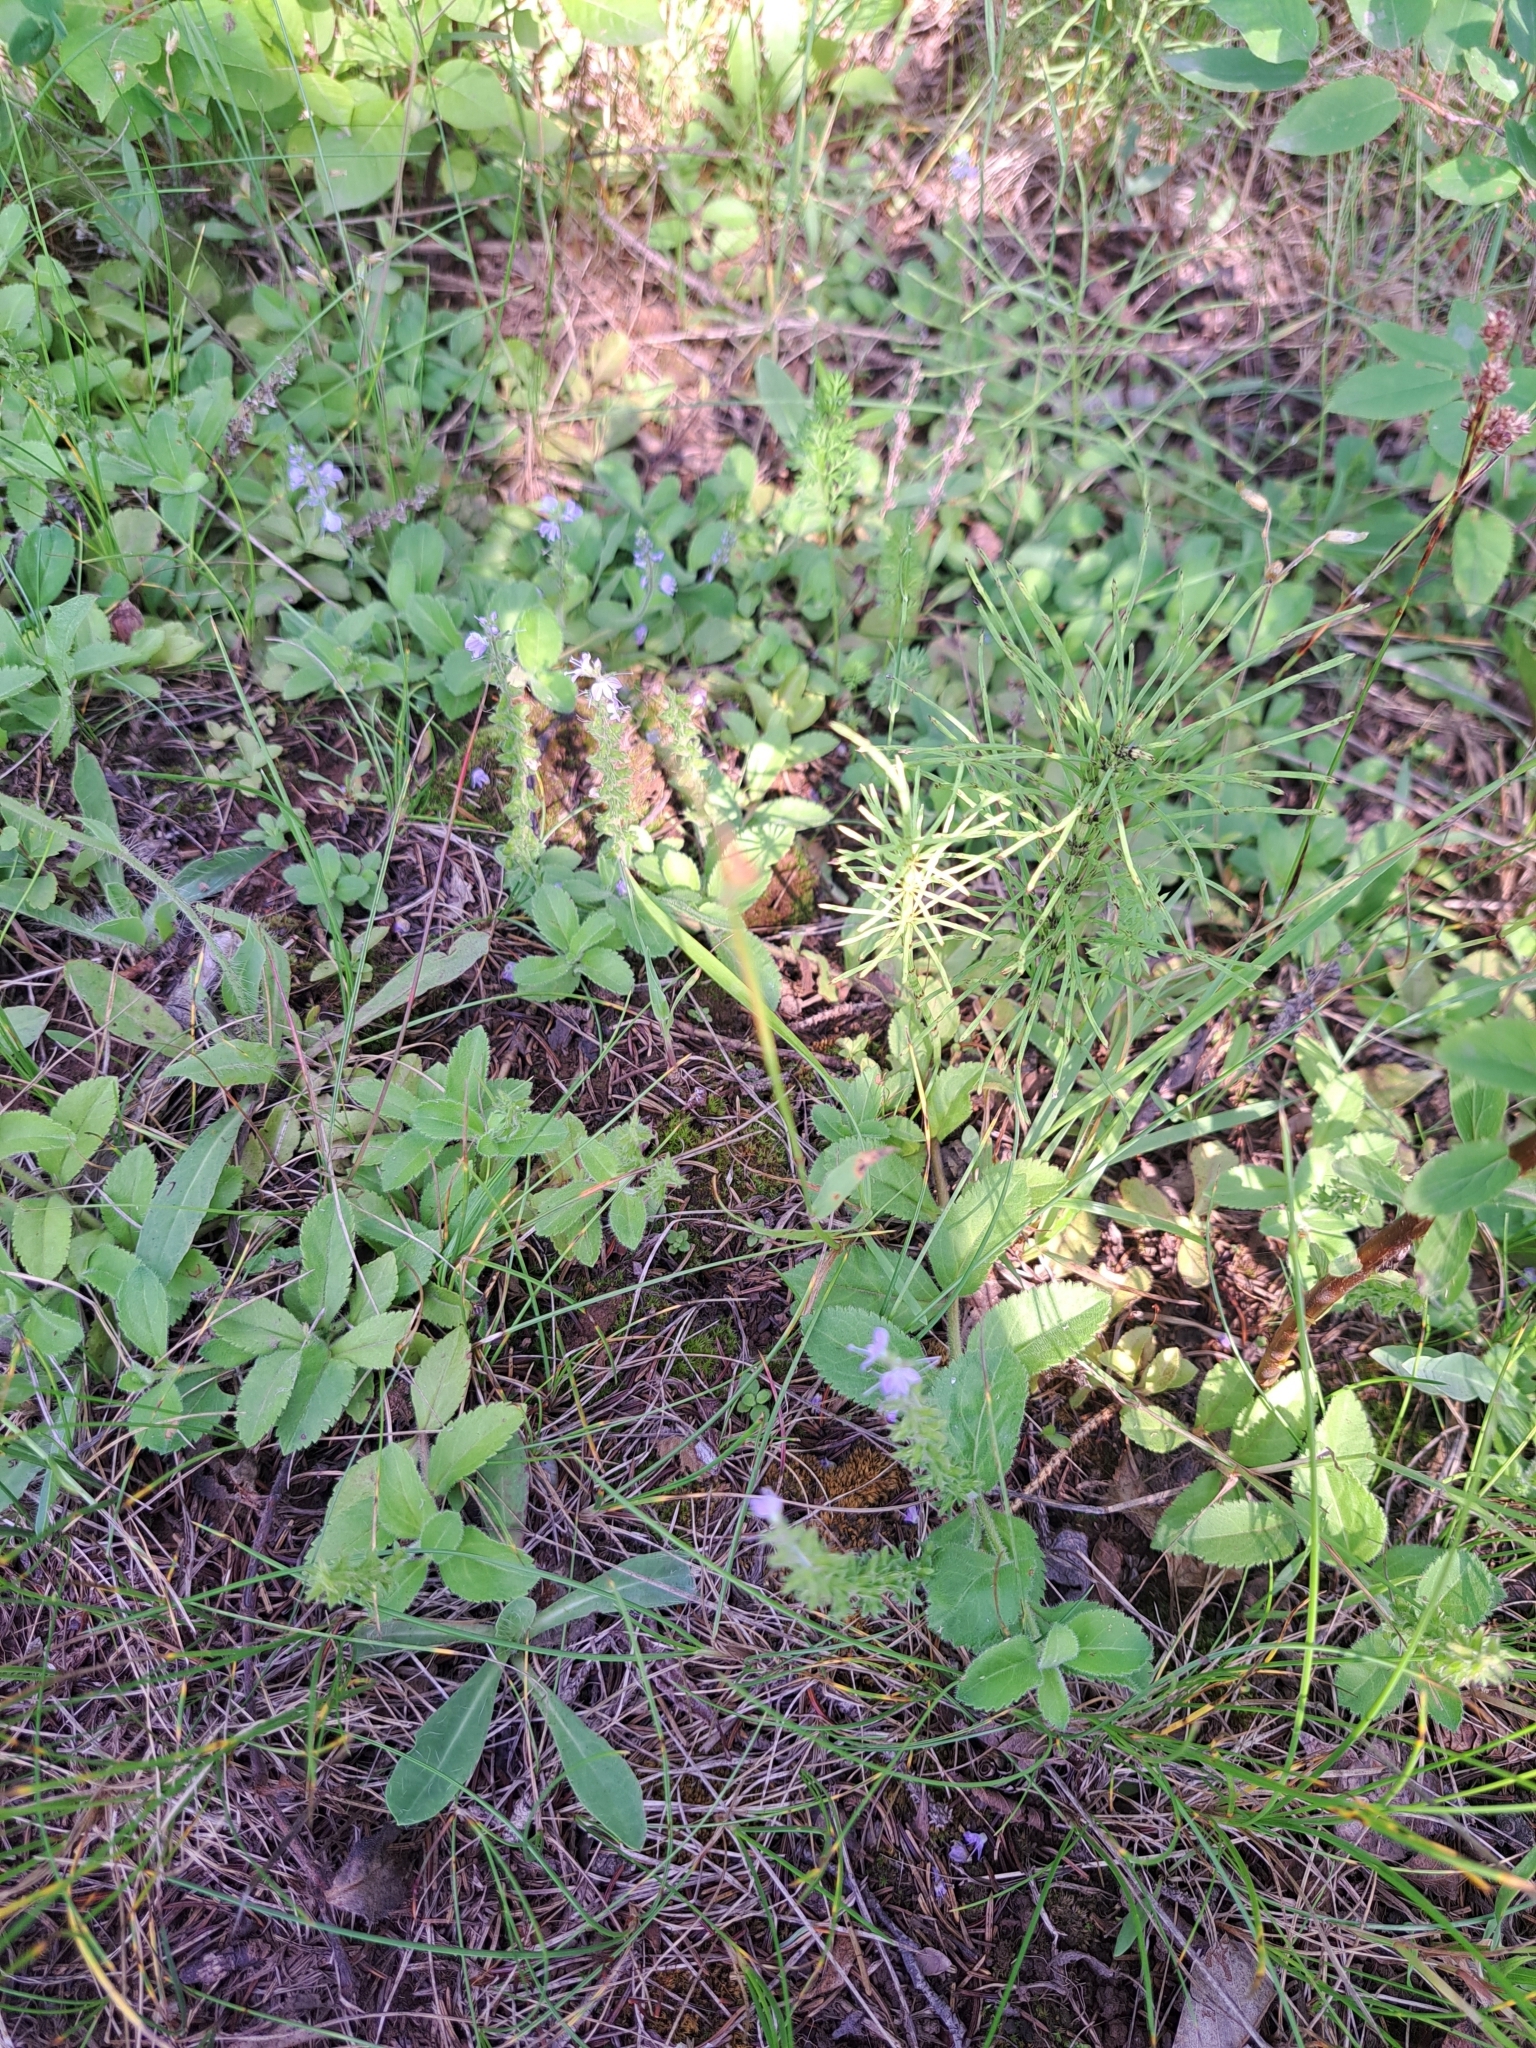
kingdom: Plantae
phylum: Tracheophyta
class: Magnoliopsida
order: Lamiales
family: Plantaginaceae
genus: Veronica
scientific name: Veronica officinalis
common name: Common speedwell
